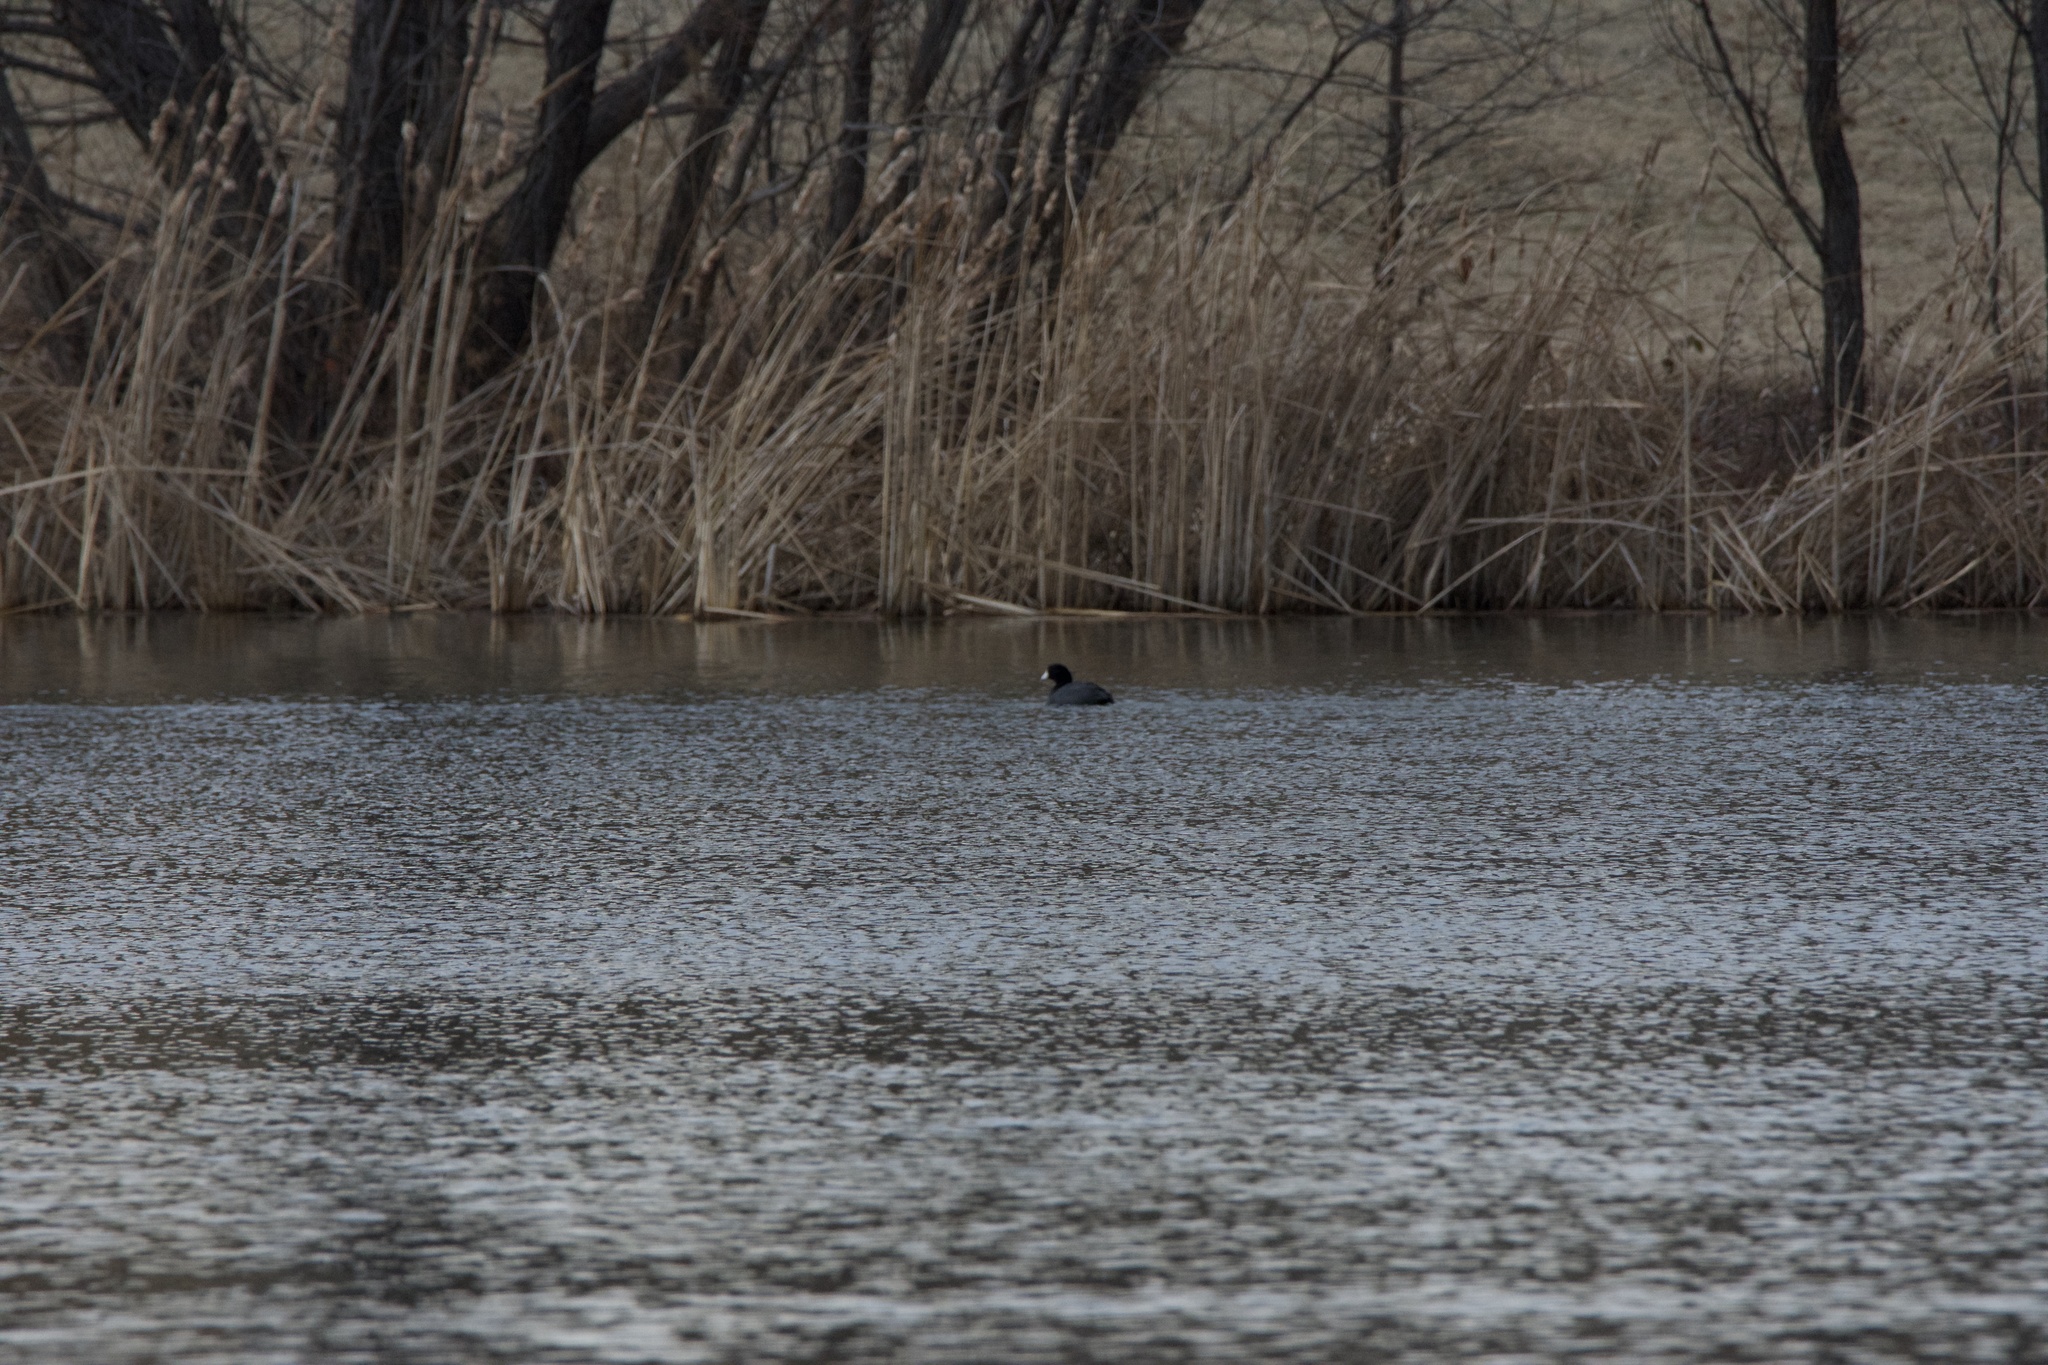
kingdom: Animalia
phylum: Chordata
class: Aves
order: Gruiformes
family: Rallidae
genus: Fulica
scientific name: Fulica americana
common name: American coot
